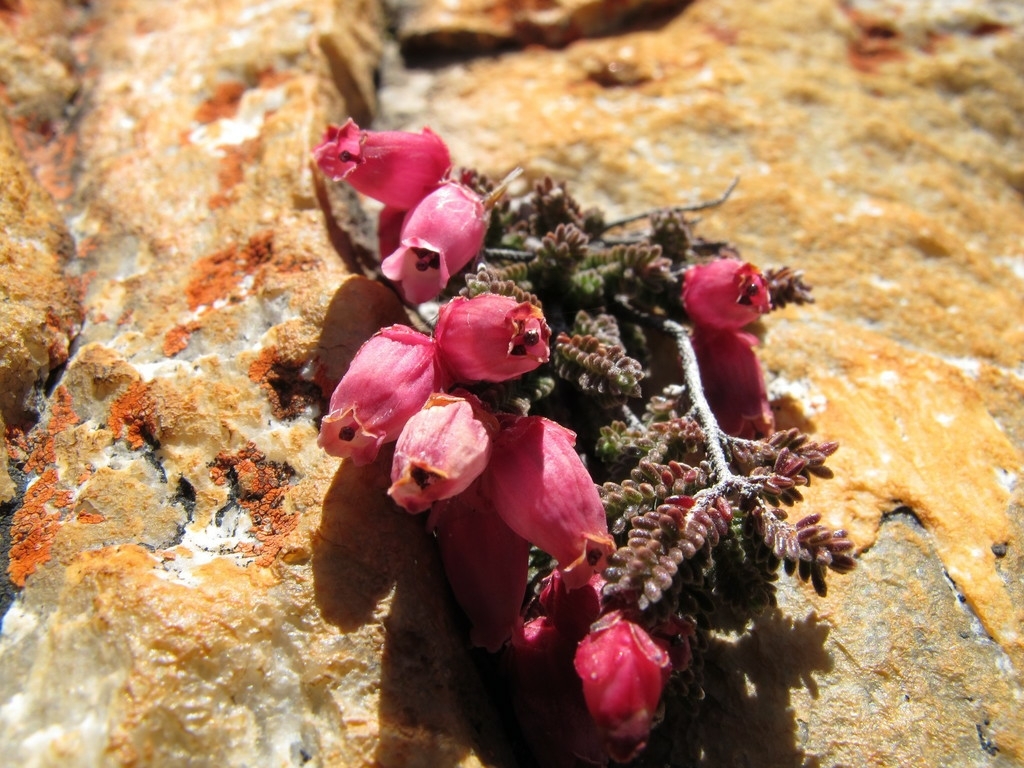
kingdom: Plantae
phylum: Tracheophyta
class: Magnoliopsida
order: Ericales
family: Ericaceae
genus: Erica
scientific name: Erica lithophila
